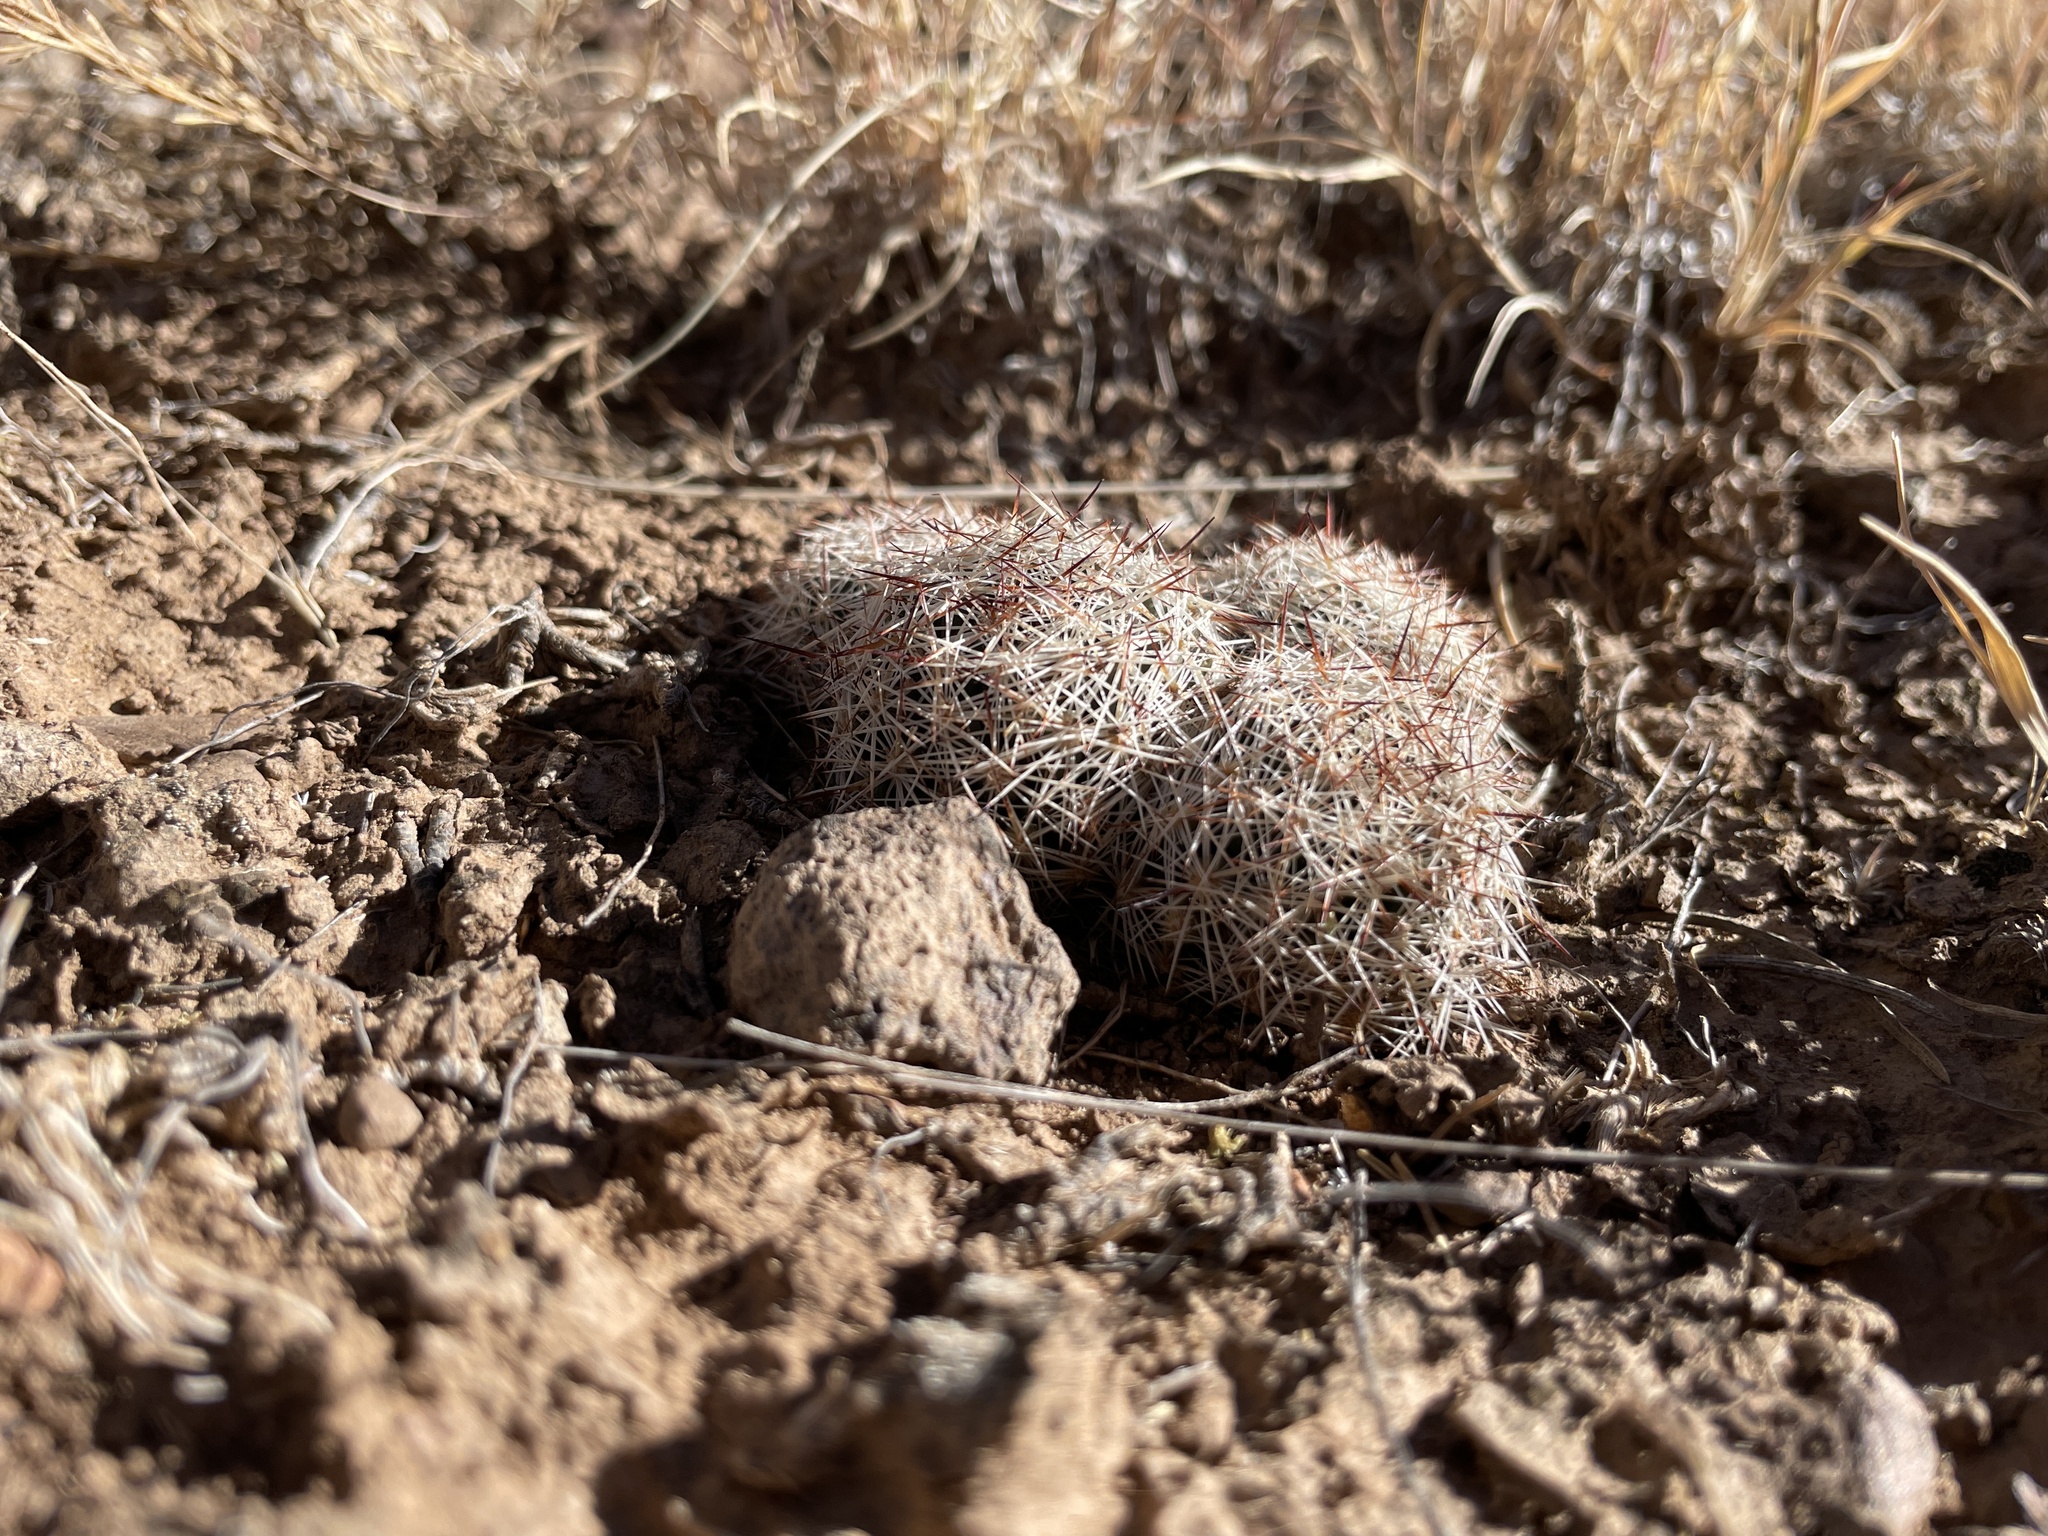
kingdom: Plantae
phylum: Tracheophyta
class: Magnoliopsida
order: Caryophyllales
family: Cactaceae
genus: Pelecyphora
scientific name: Pelecyphora vivipara
